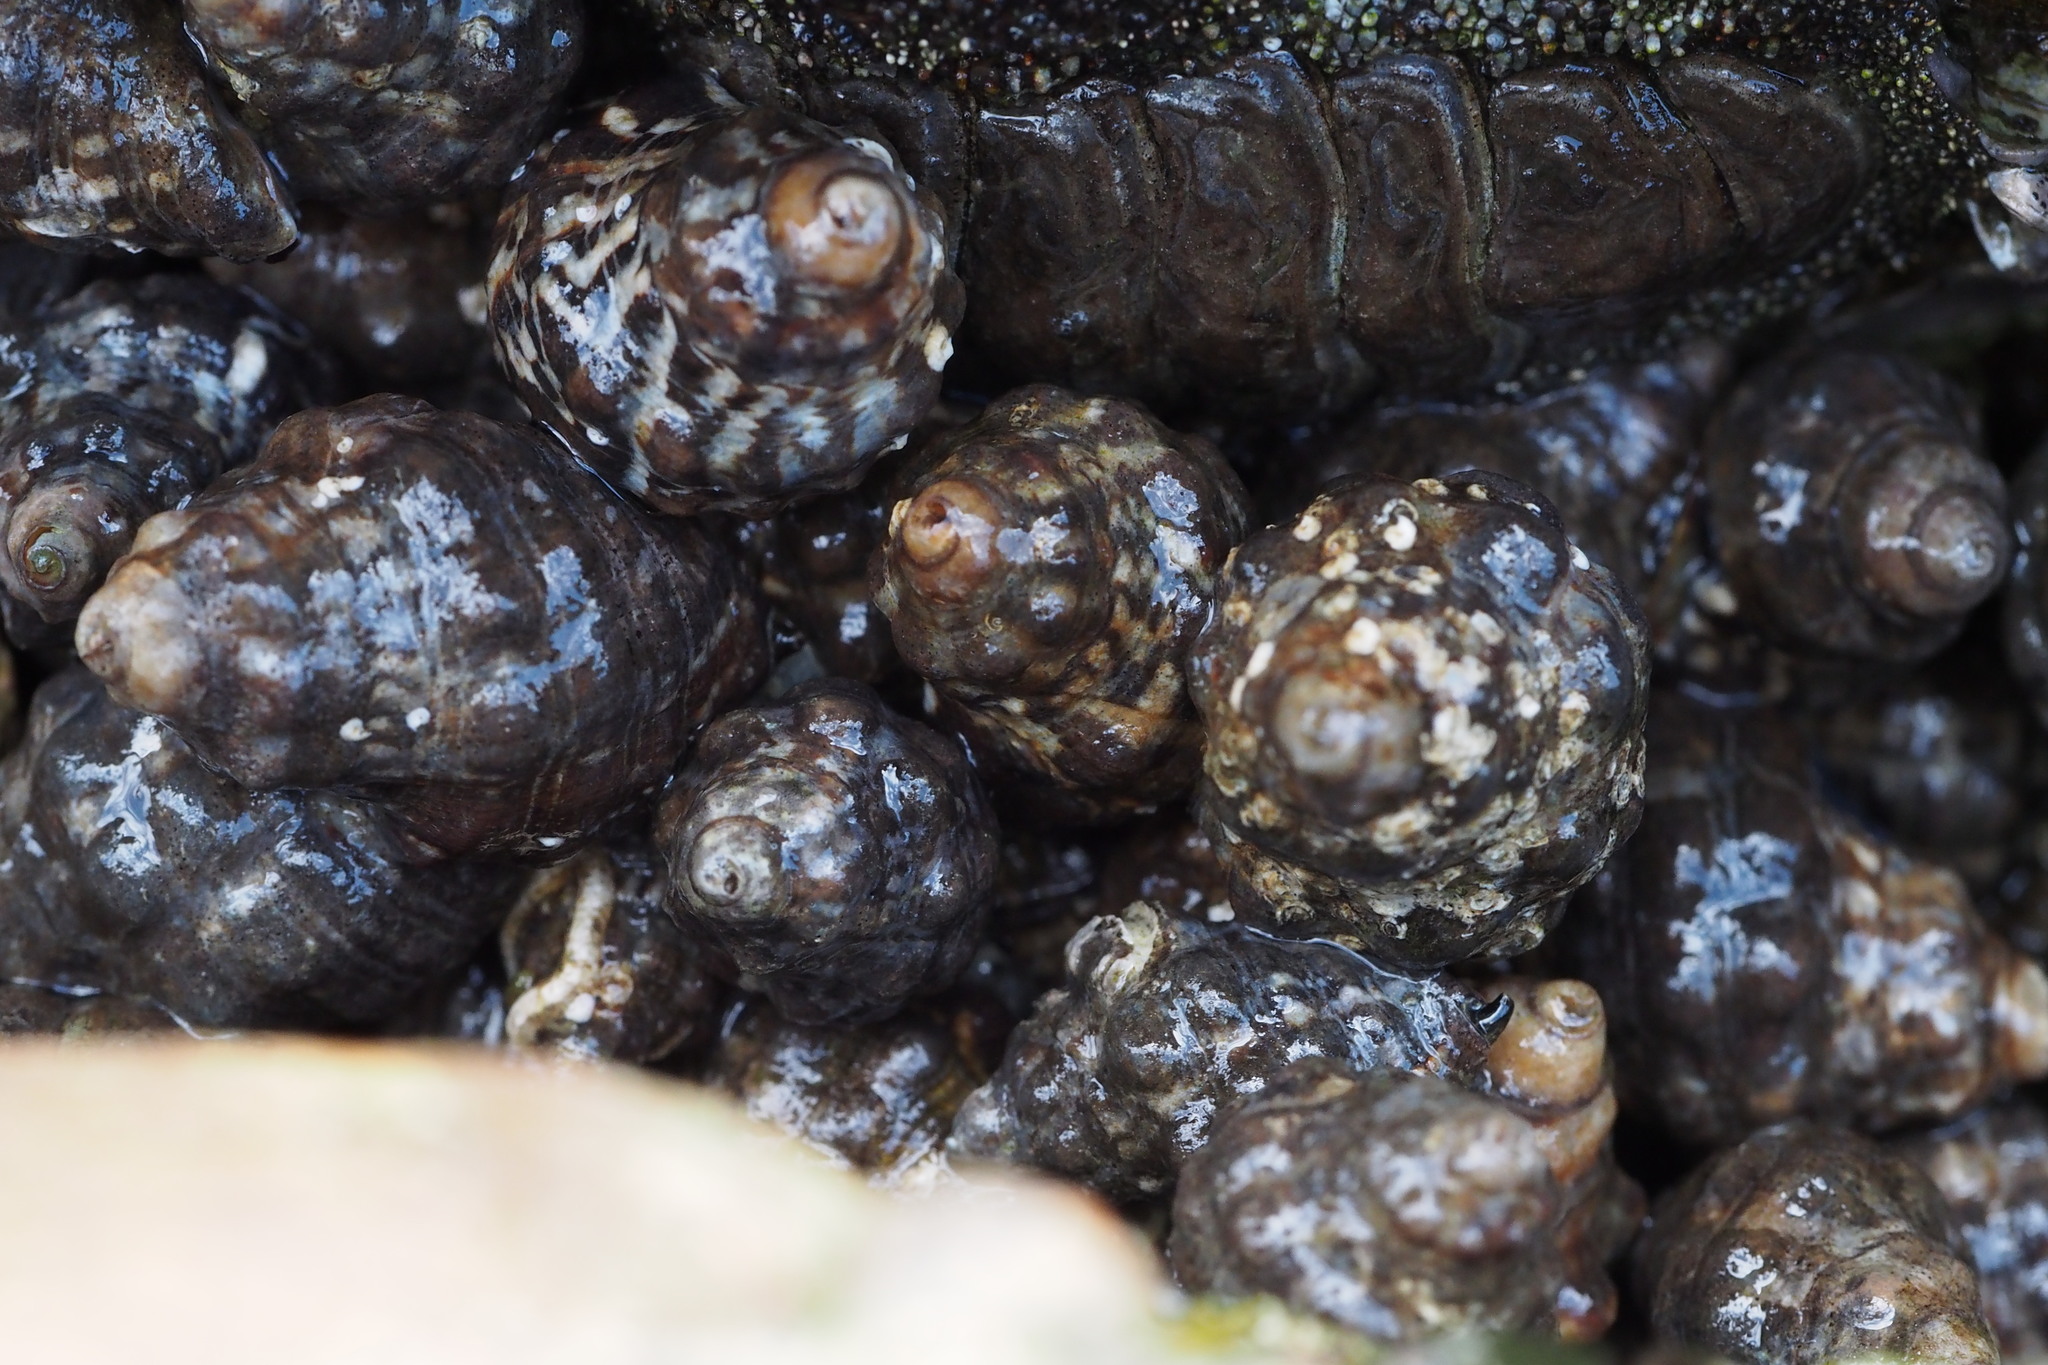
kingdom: Animalia
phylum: Mollusca
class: Gastropoda
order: Neogastropoda
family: Muricidae
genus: Reishia
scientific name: Reishia clavigera
